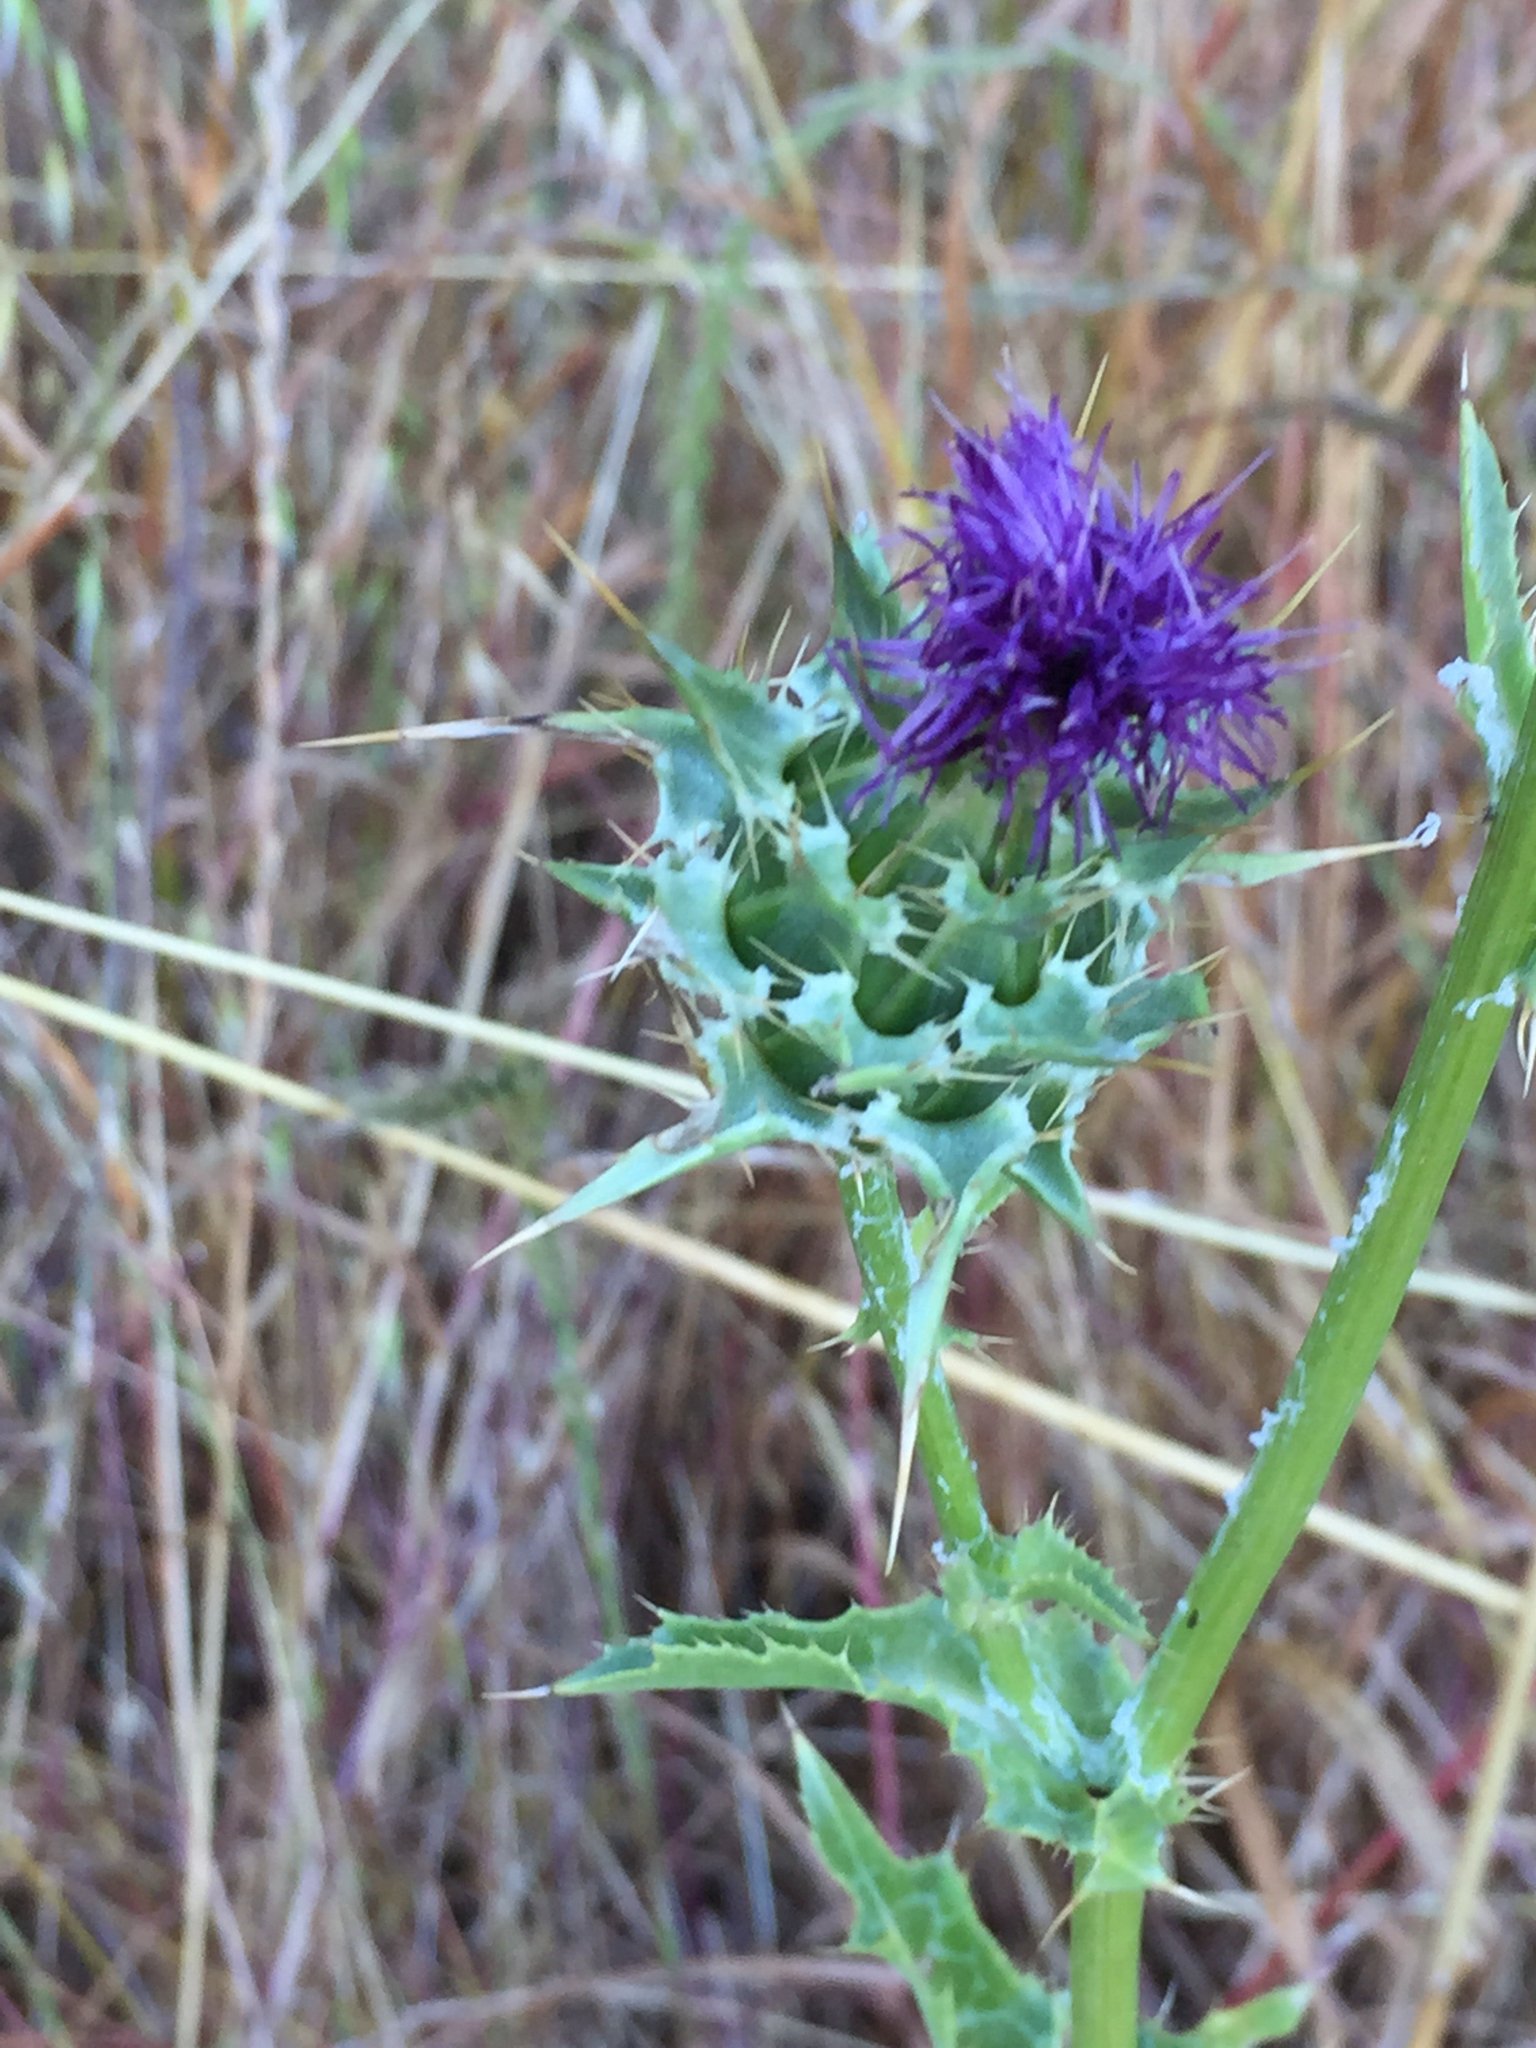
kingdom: Plantae
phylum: Tracheophyta
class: Magnoliopsida
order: Asterales
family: Asteraceae
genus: Silybum
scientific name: Silybum marianum
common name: Milk thistle
